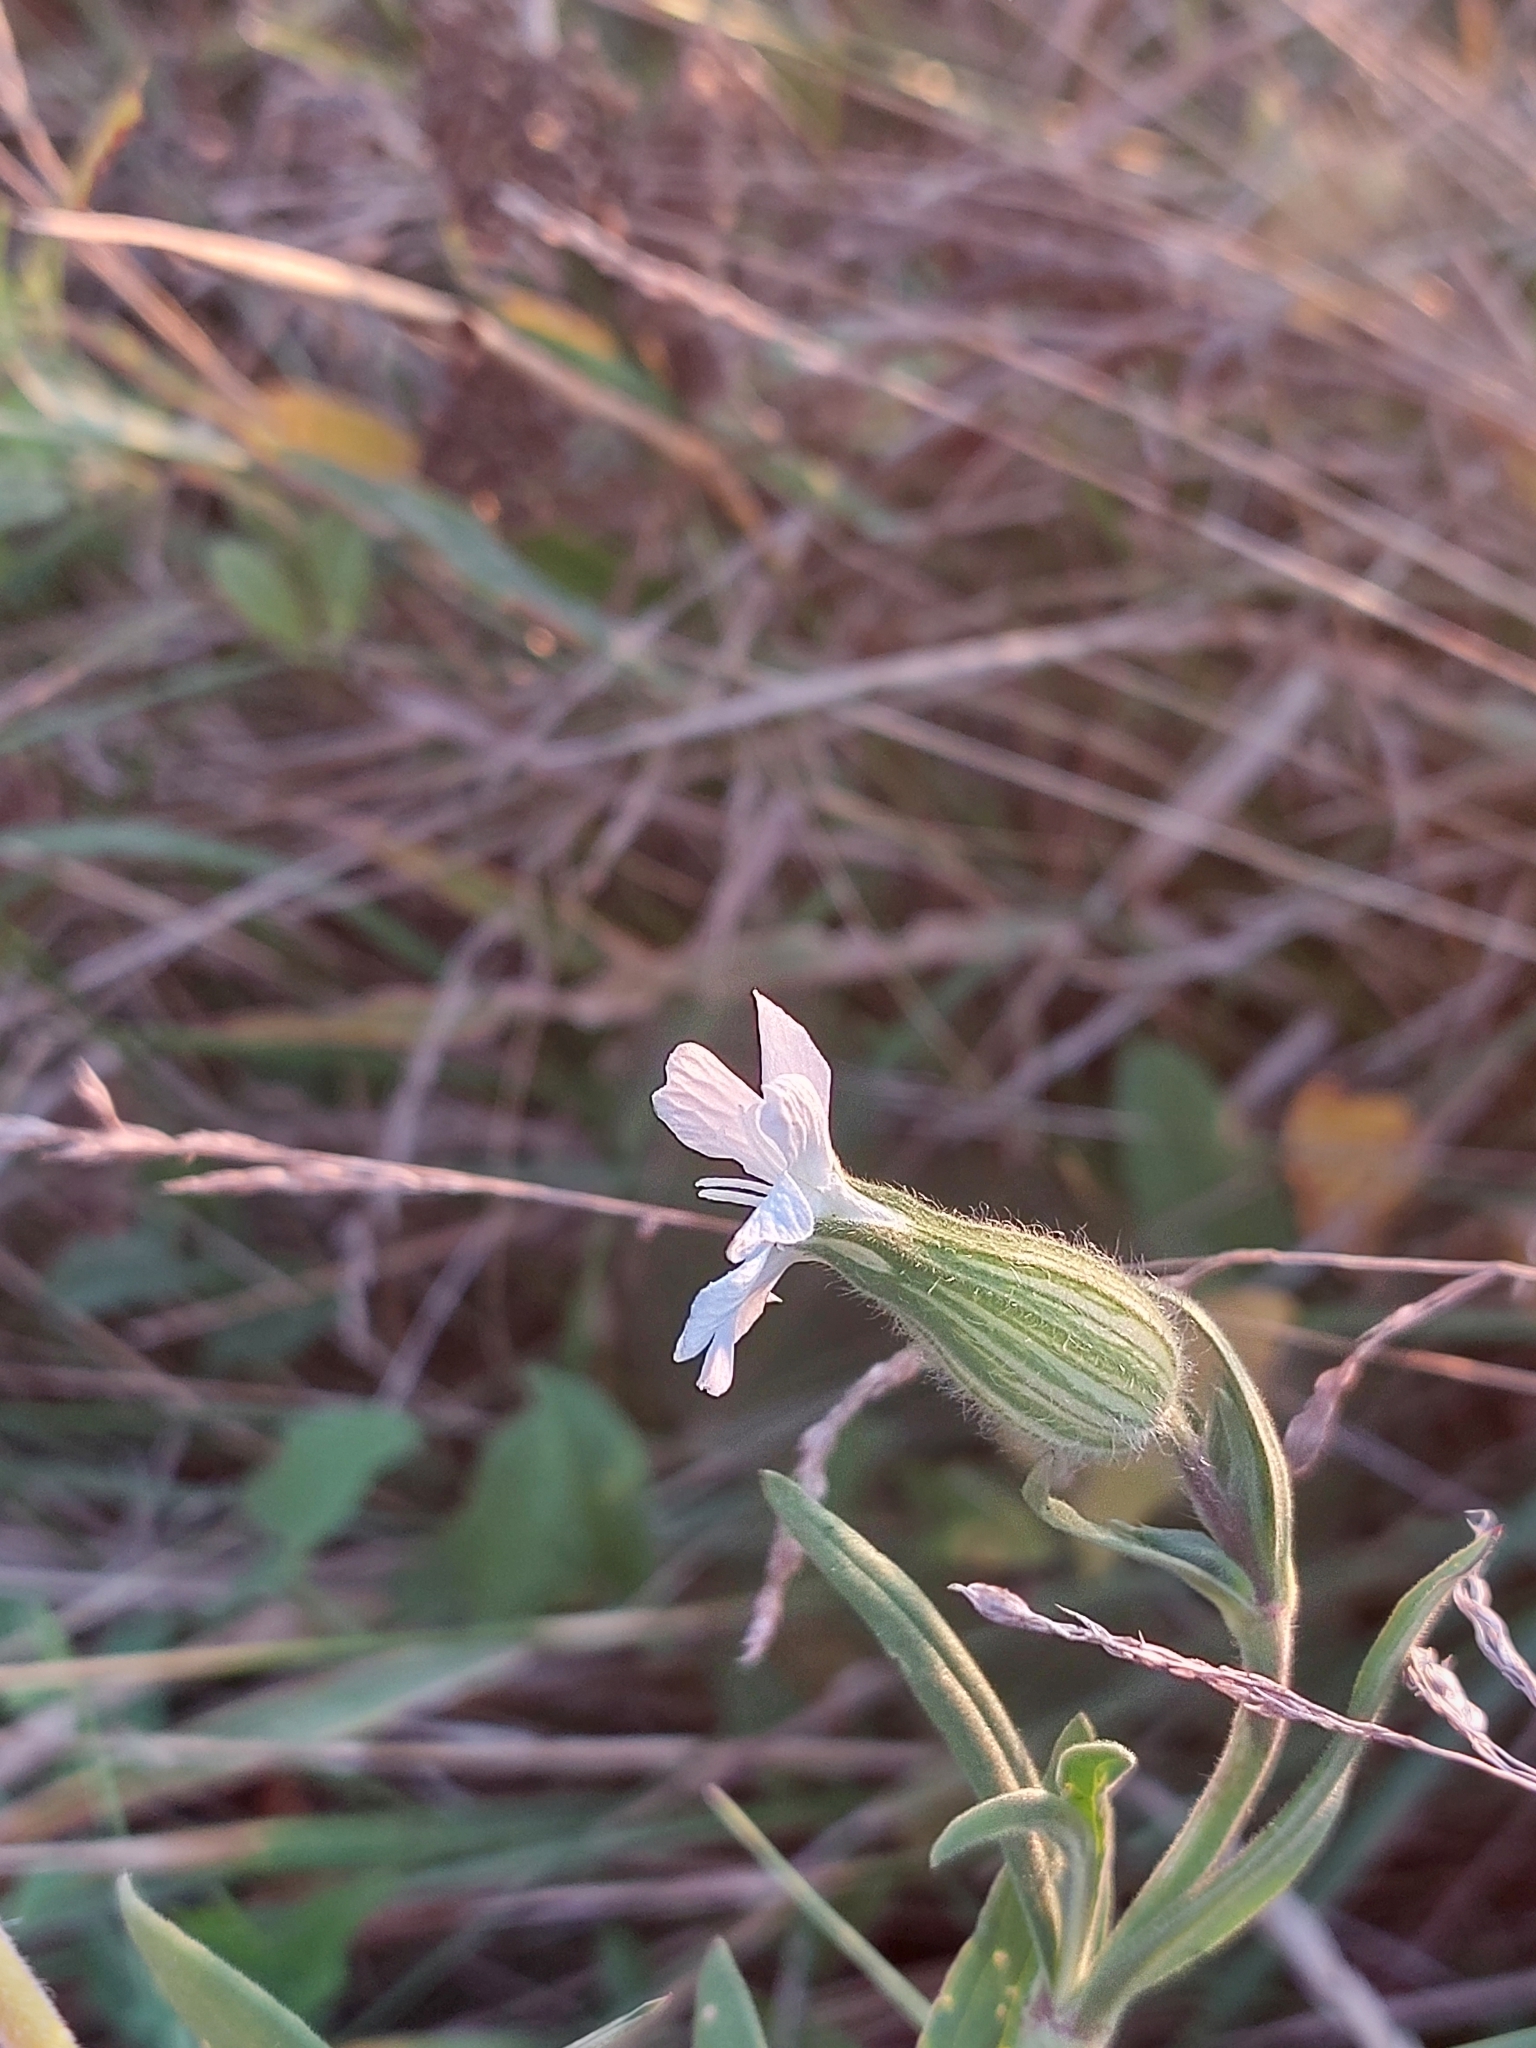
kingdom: Plantae
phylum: Tracheophyta
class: Magnoliopsida
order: Caryophyllales
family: Caryophyllaceae
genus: Silene
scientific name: Silene latifolia
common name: White campion
